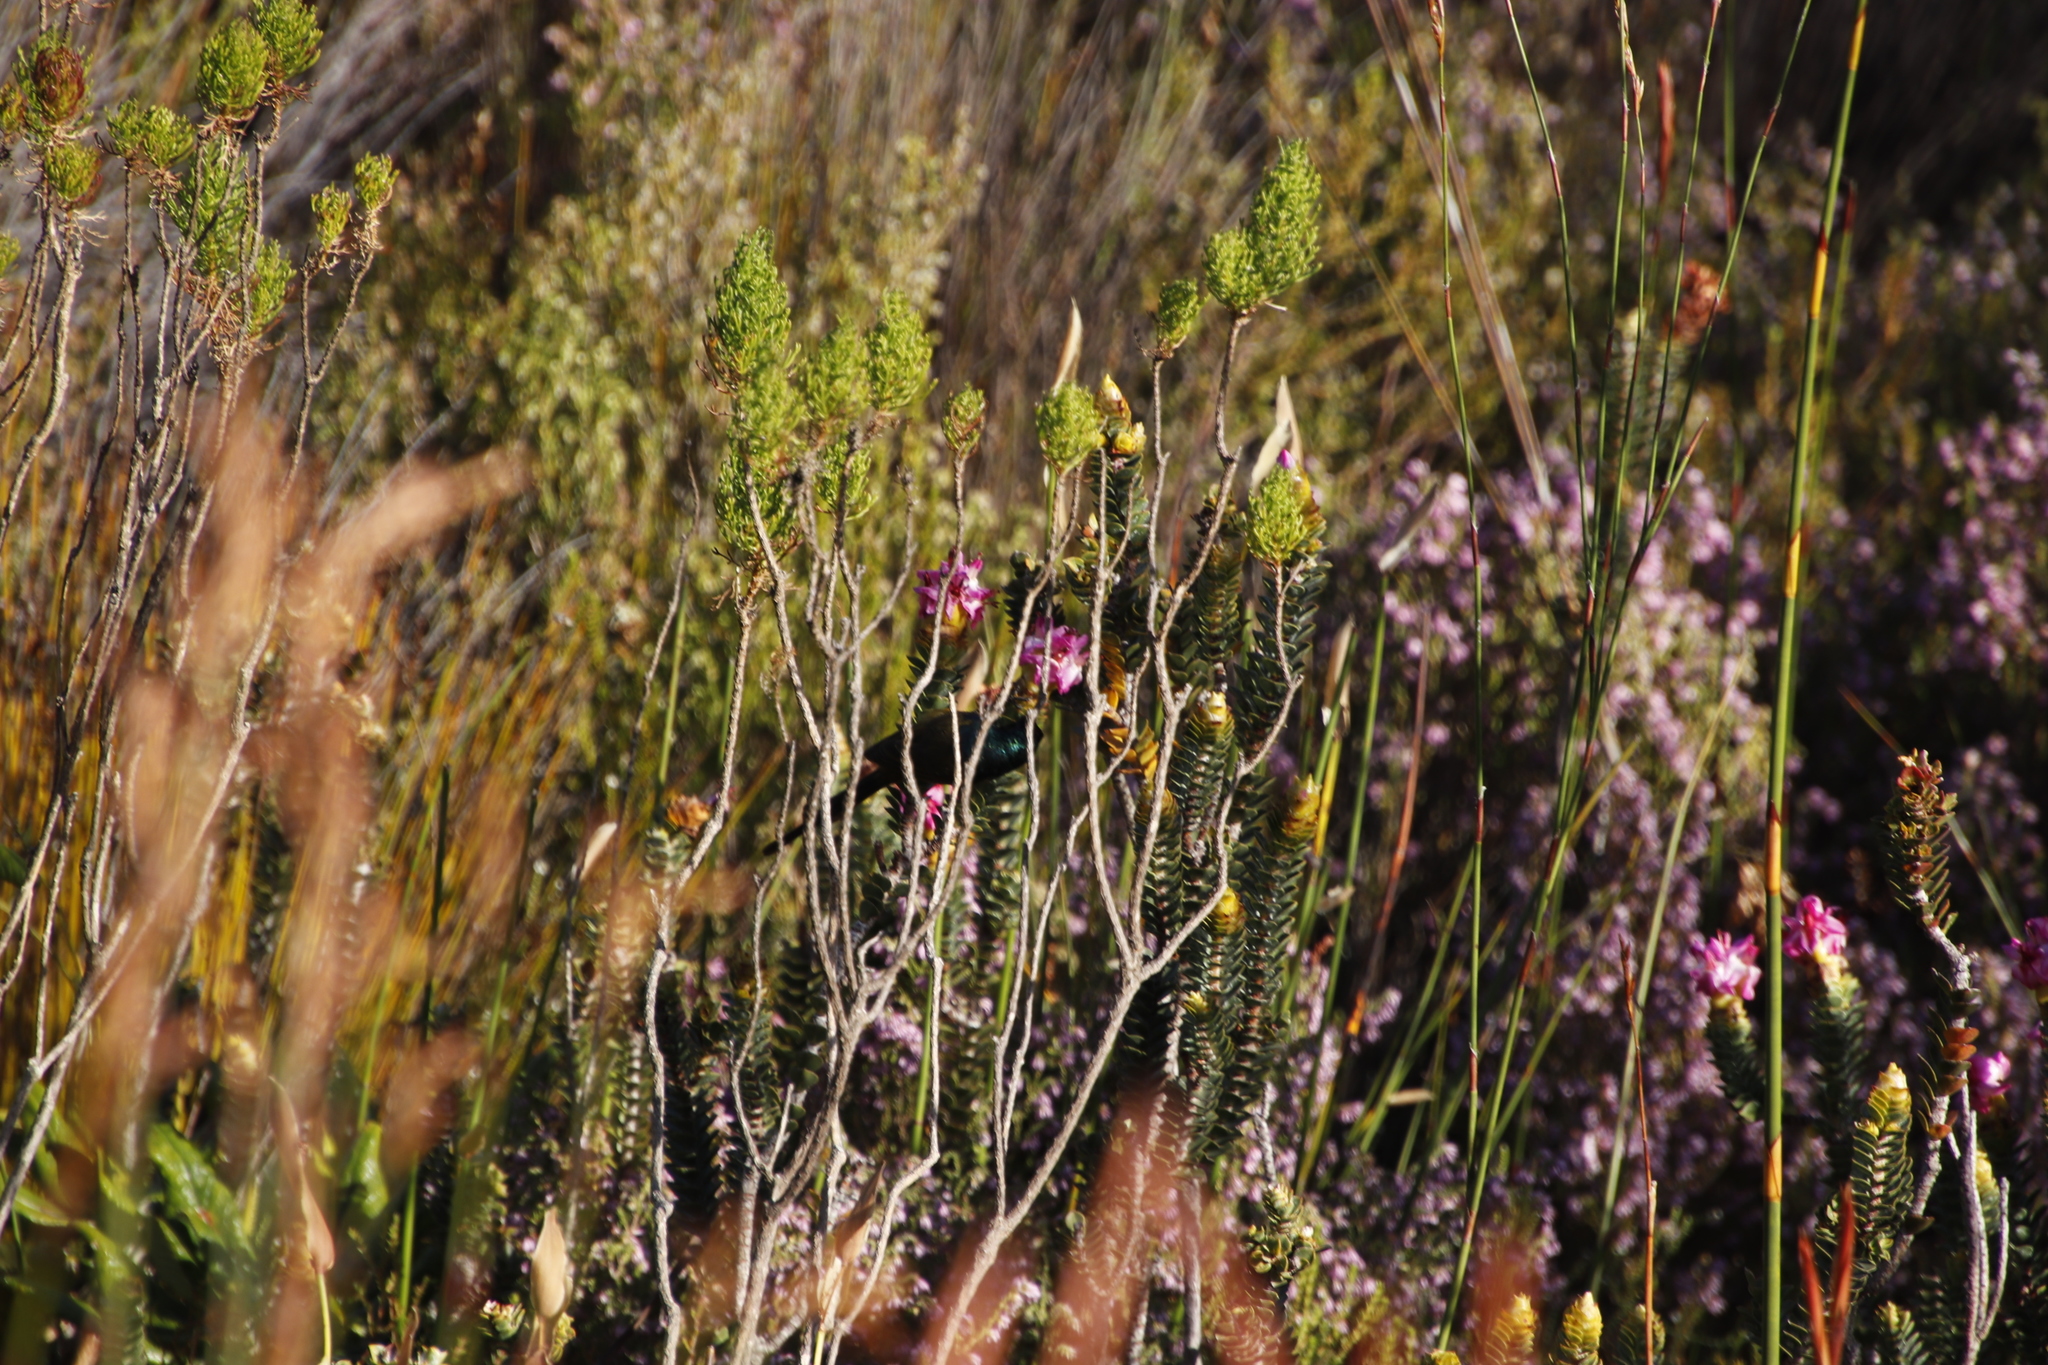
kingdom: Plantae
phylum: Tracheophyta
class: Magnoliopsida
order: Myrtales
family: Penaeaceae
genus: Saltera
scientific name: Saltera sarcocolla
